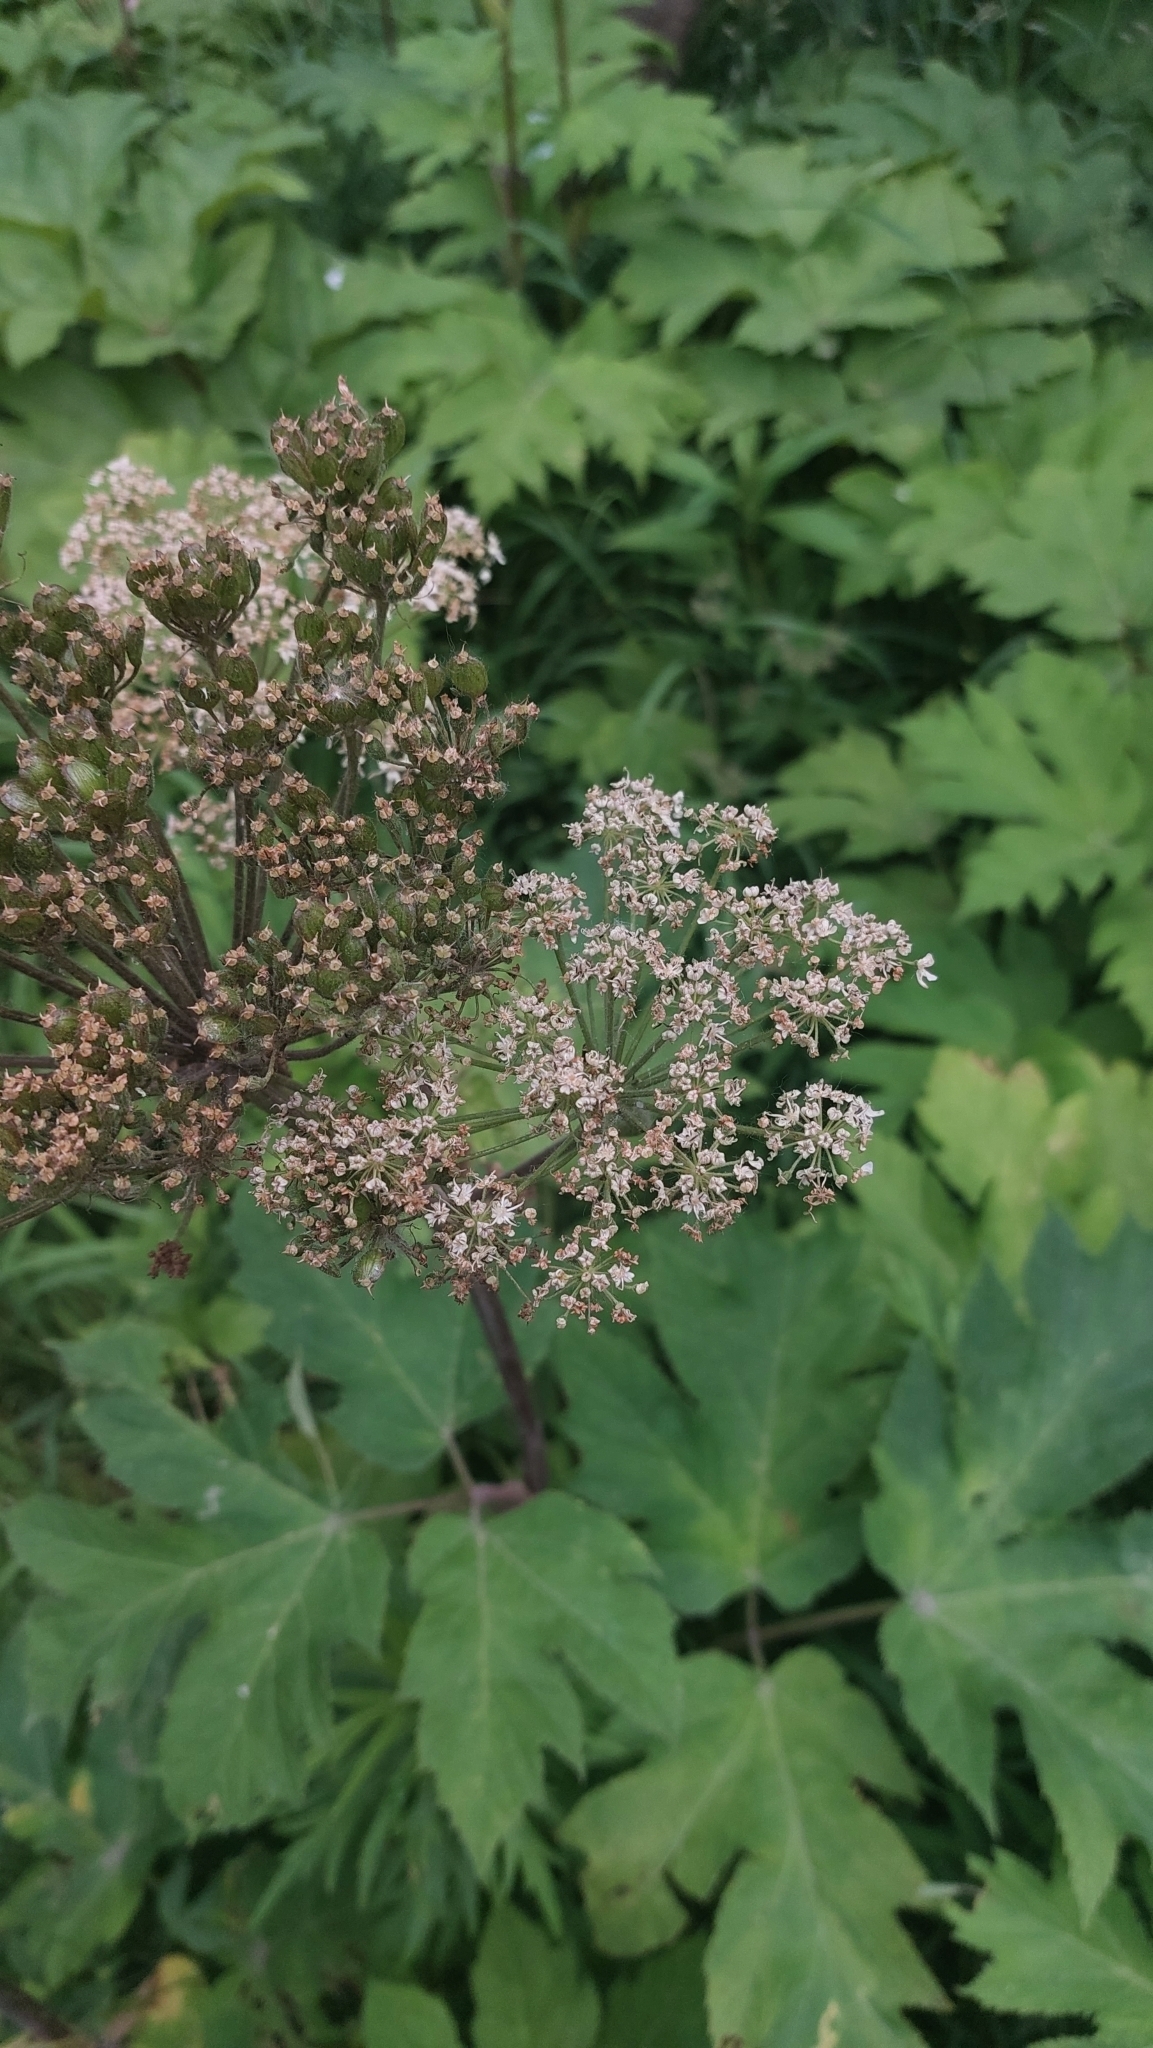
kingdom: Plantae
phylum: Tracheophyta
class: Magnoliopsida
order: Apiales
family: Apiaceae
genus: Heracleum
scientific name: Heracleum maximum
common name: American cow parsnip
